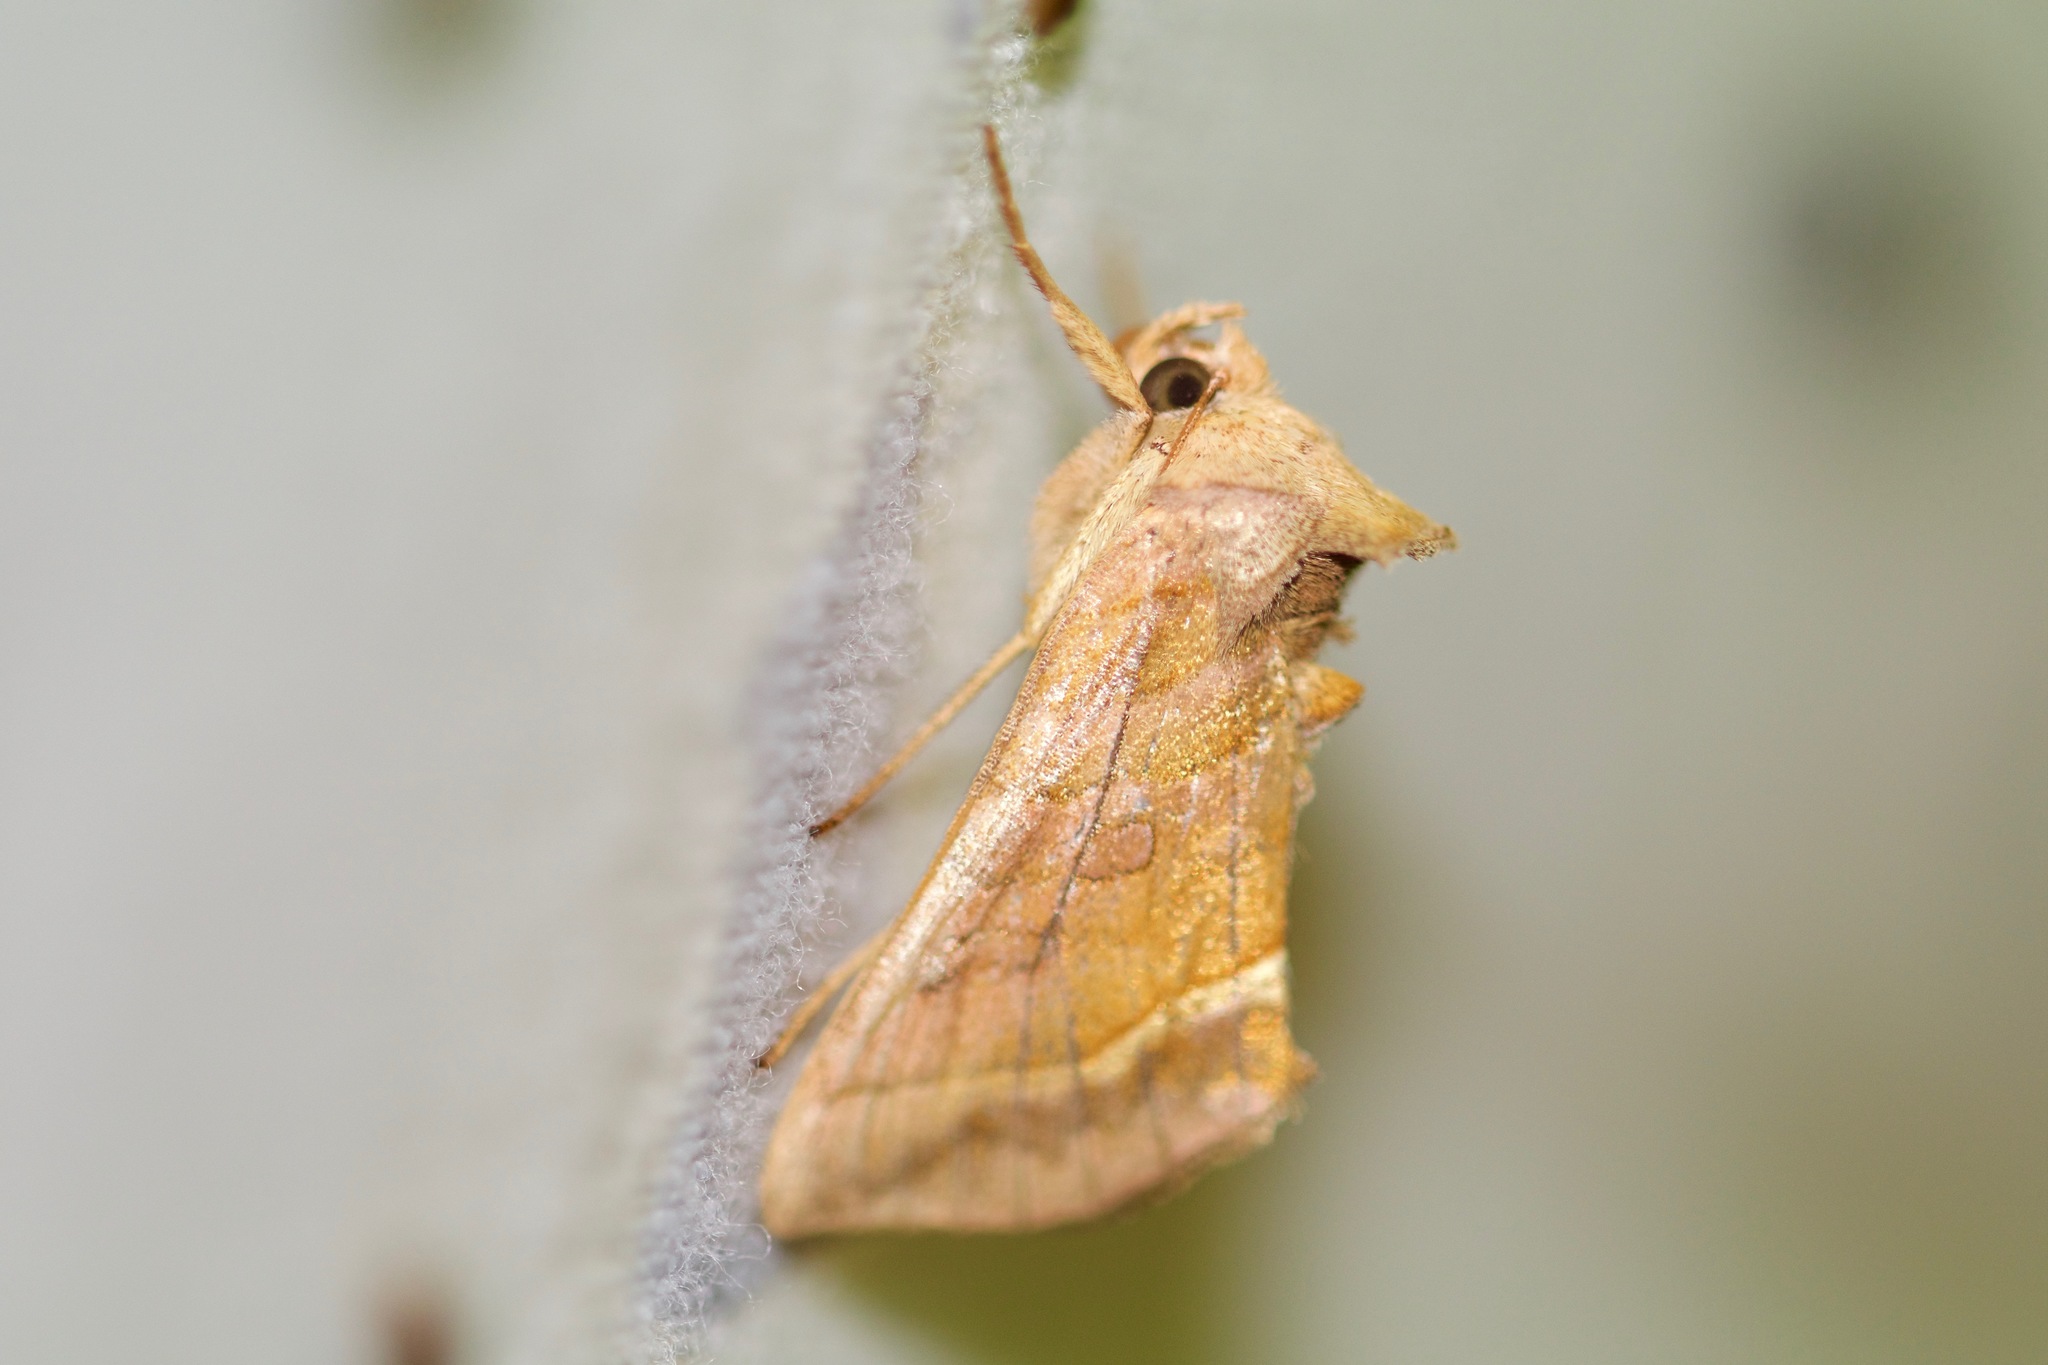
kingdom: Animalia
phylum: Arthropoda
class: Insecta
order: Lepidoptera
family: Noctuidae
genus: Diachrysia
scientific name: Diachrysia aereoides
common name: Dark-spotted looper moth
